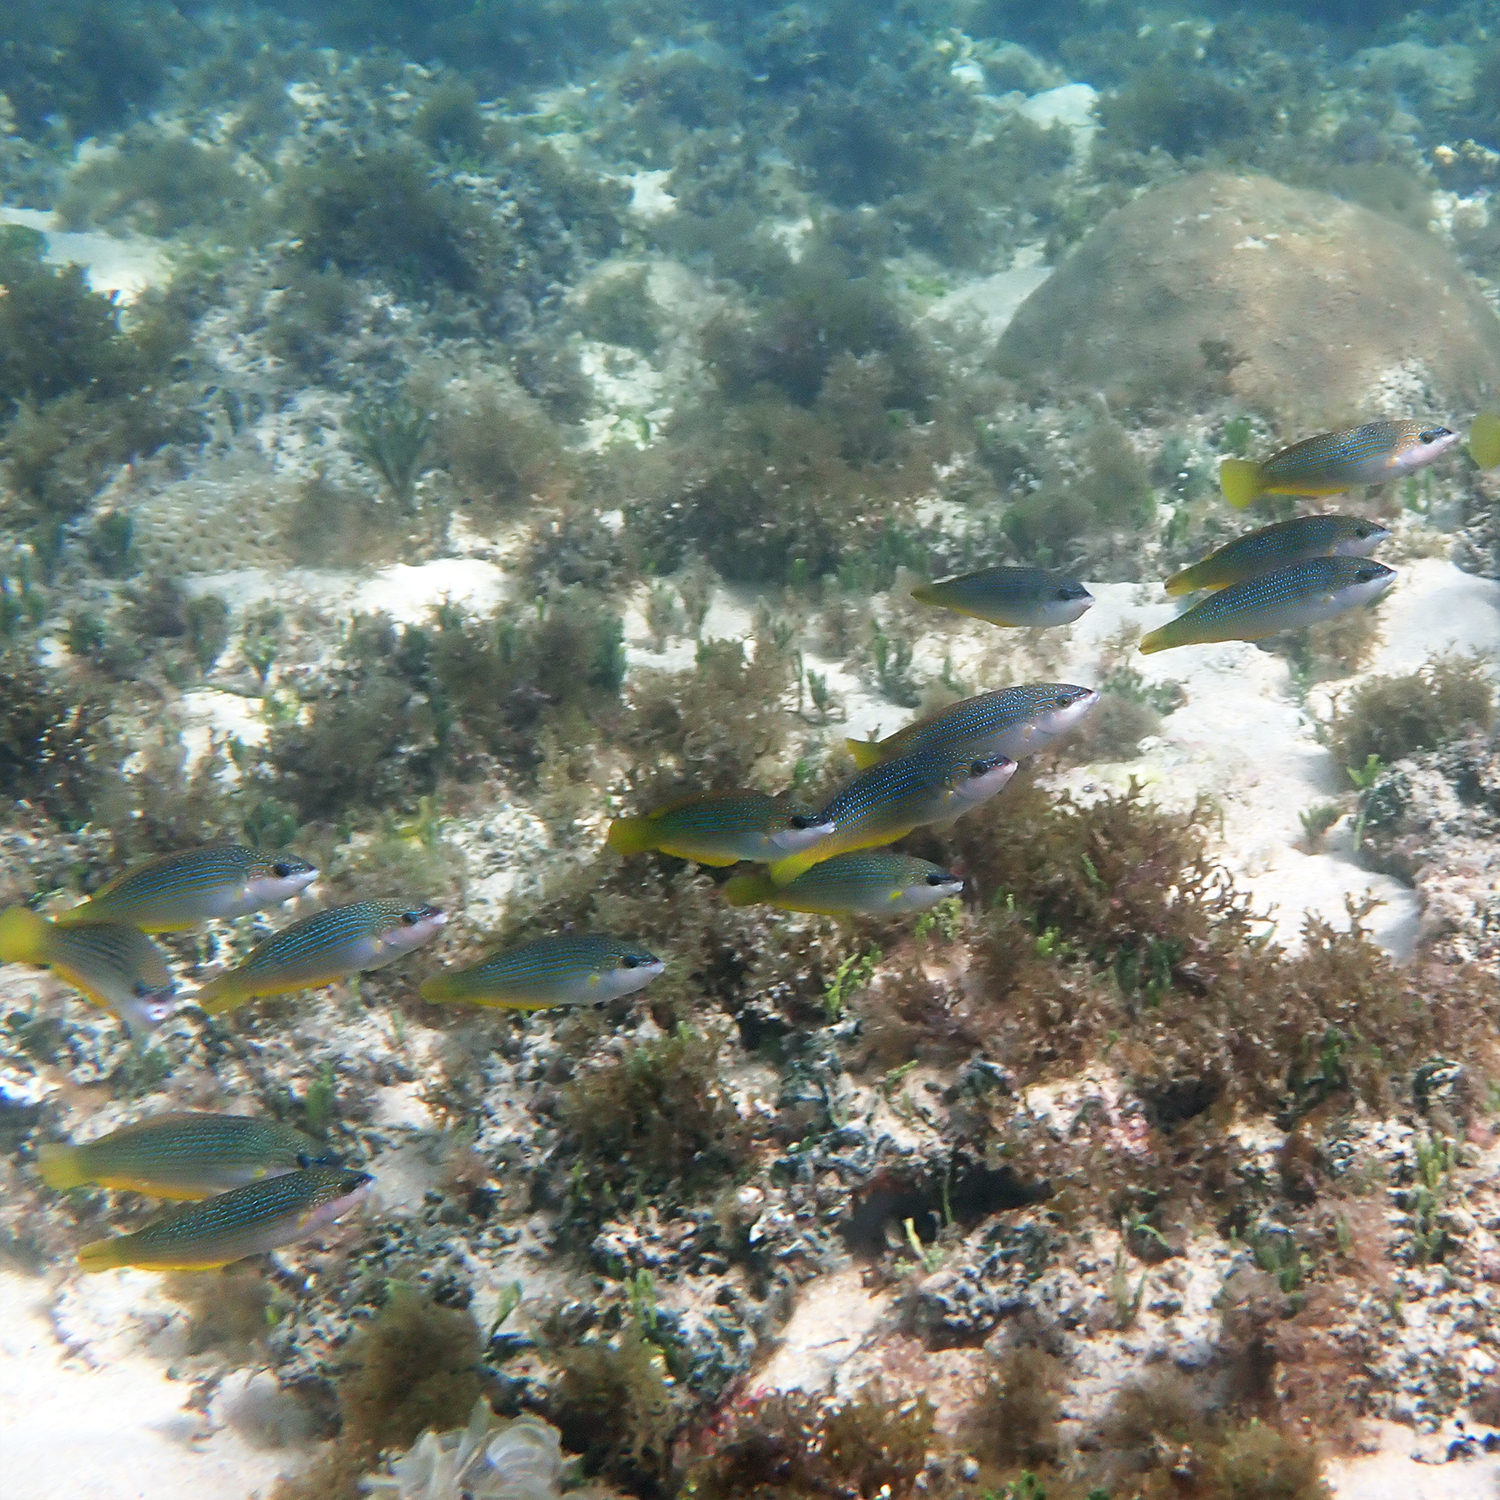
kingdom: Animalia
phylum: Chordata
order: Perciformes
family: Labridae
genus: Anampses
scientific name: Anampses elegans
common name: Elegant wrasse
